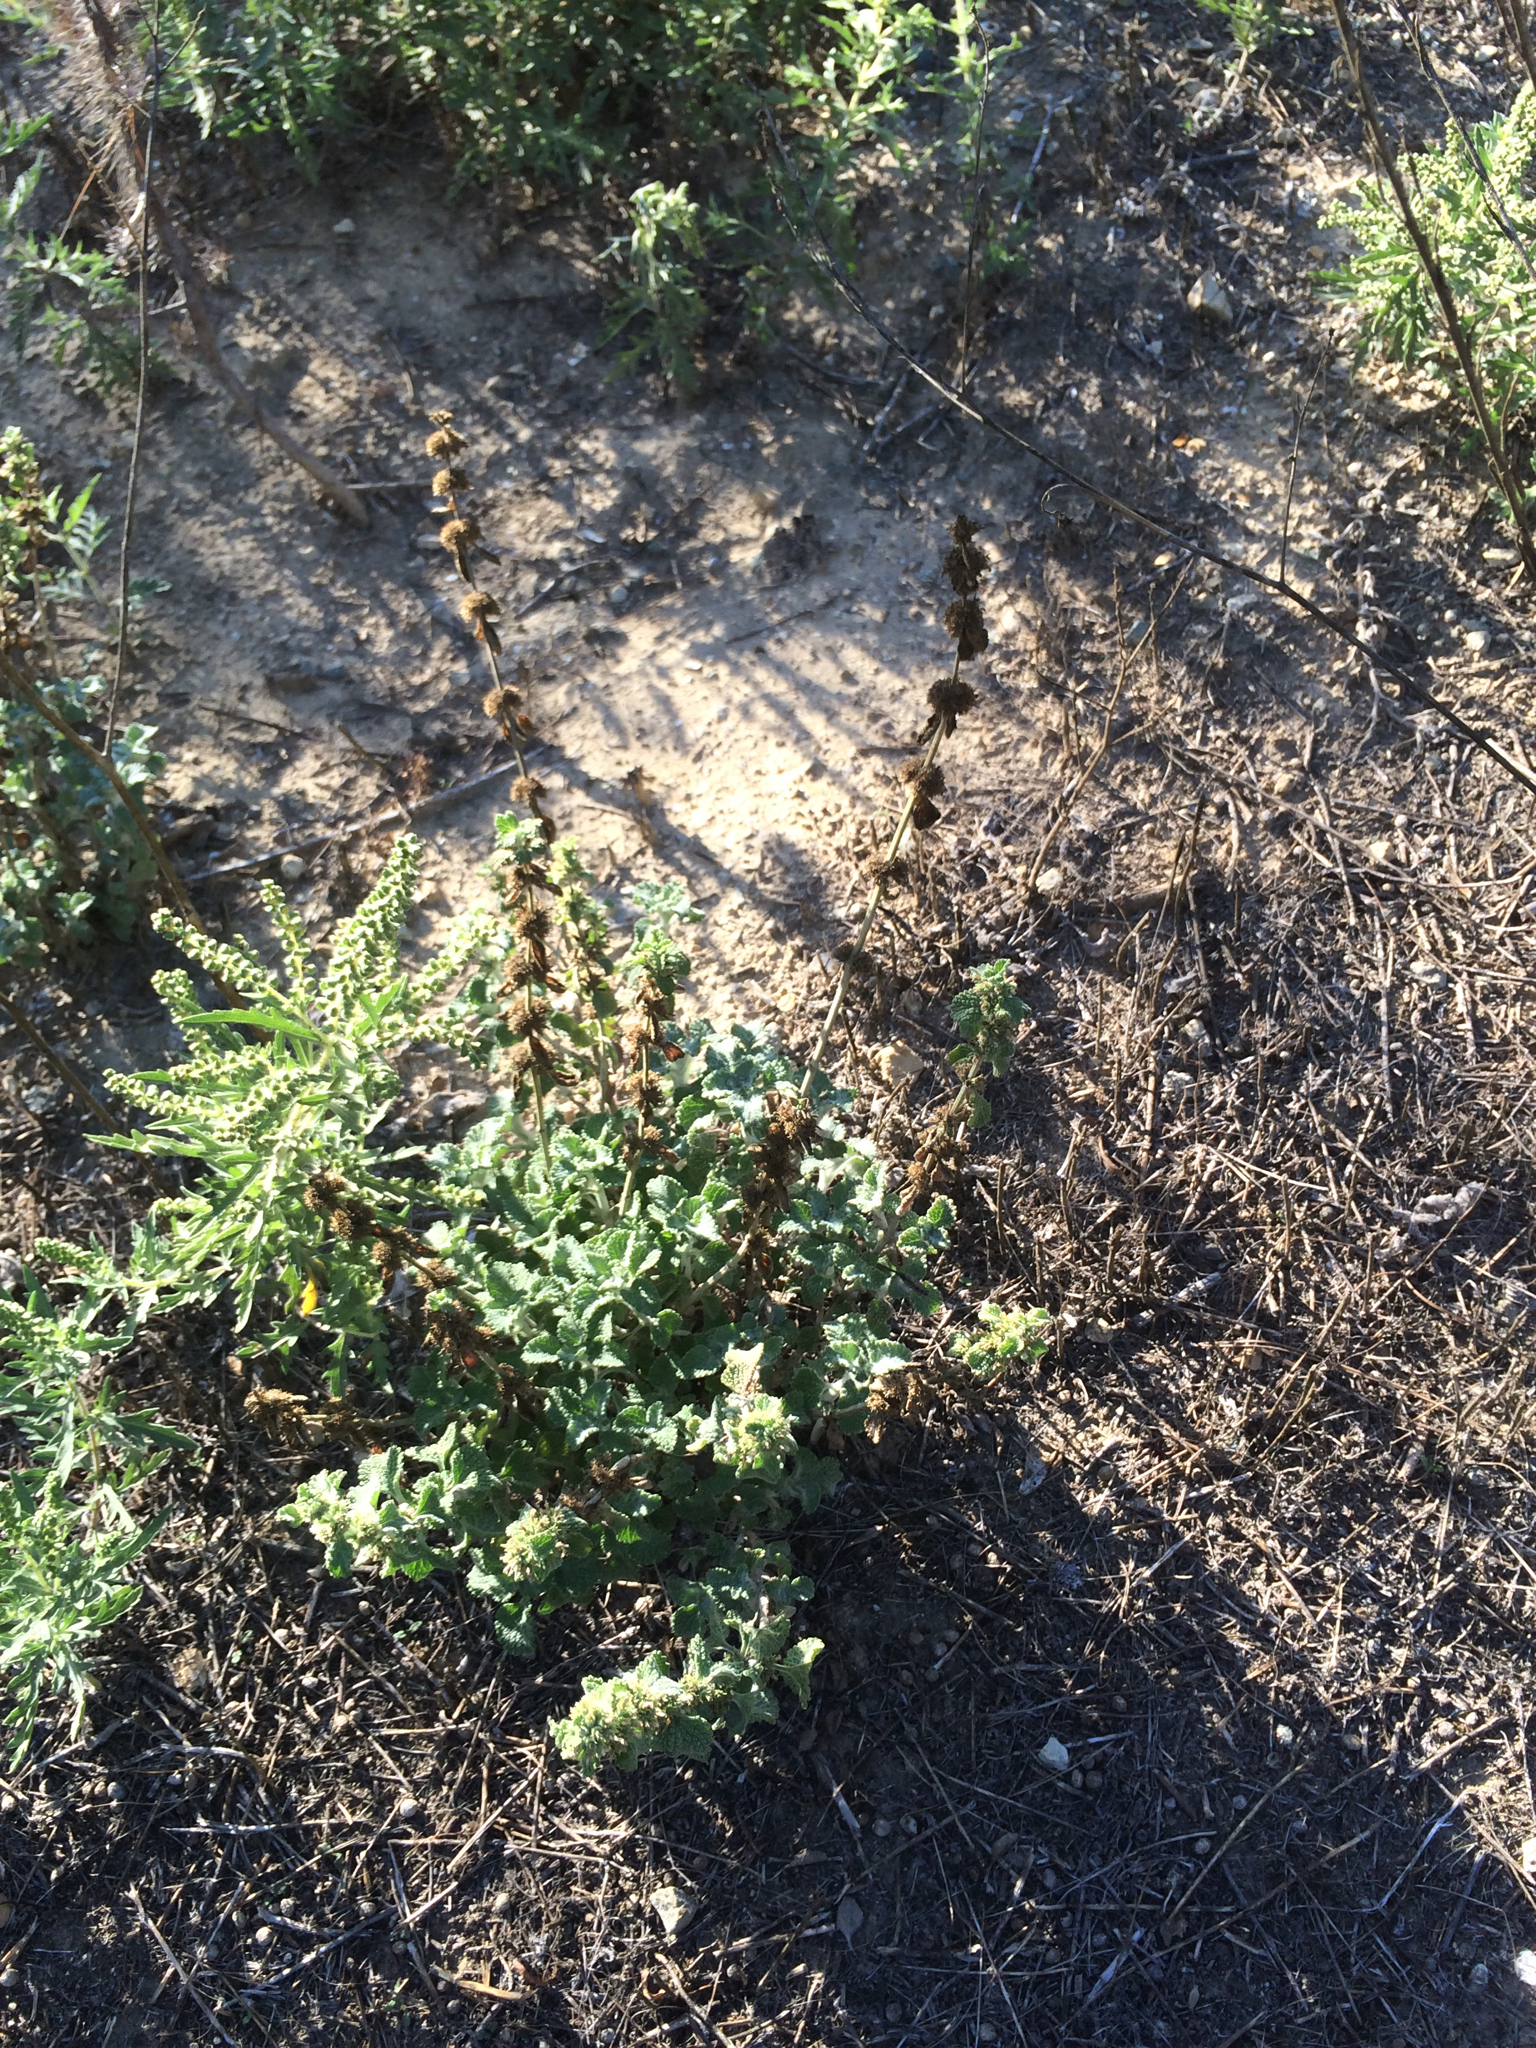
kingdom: Plantae
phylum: Tracheophyta
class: Magnoliopsida
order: Lamiales
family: Lamiaceae
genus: Marrubium
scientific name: Marrubium vulgare
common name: Horehound
